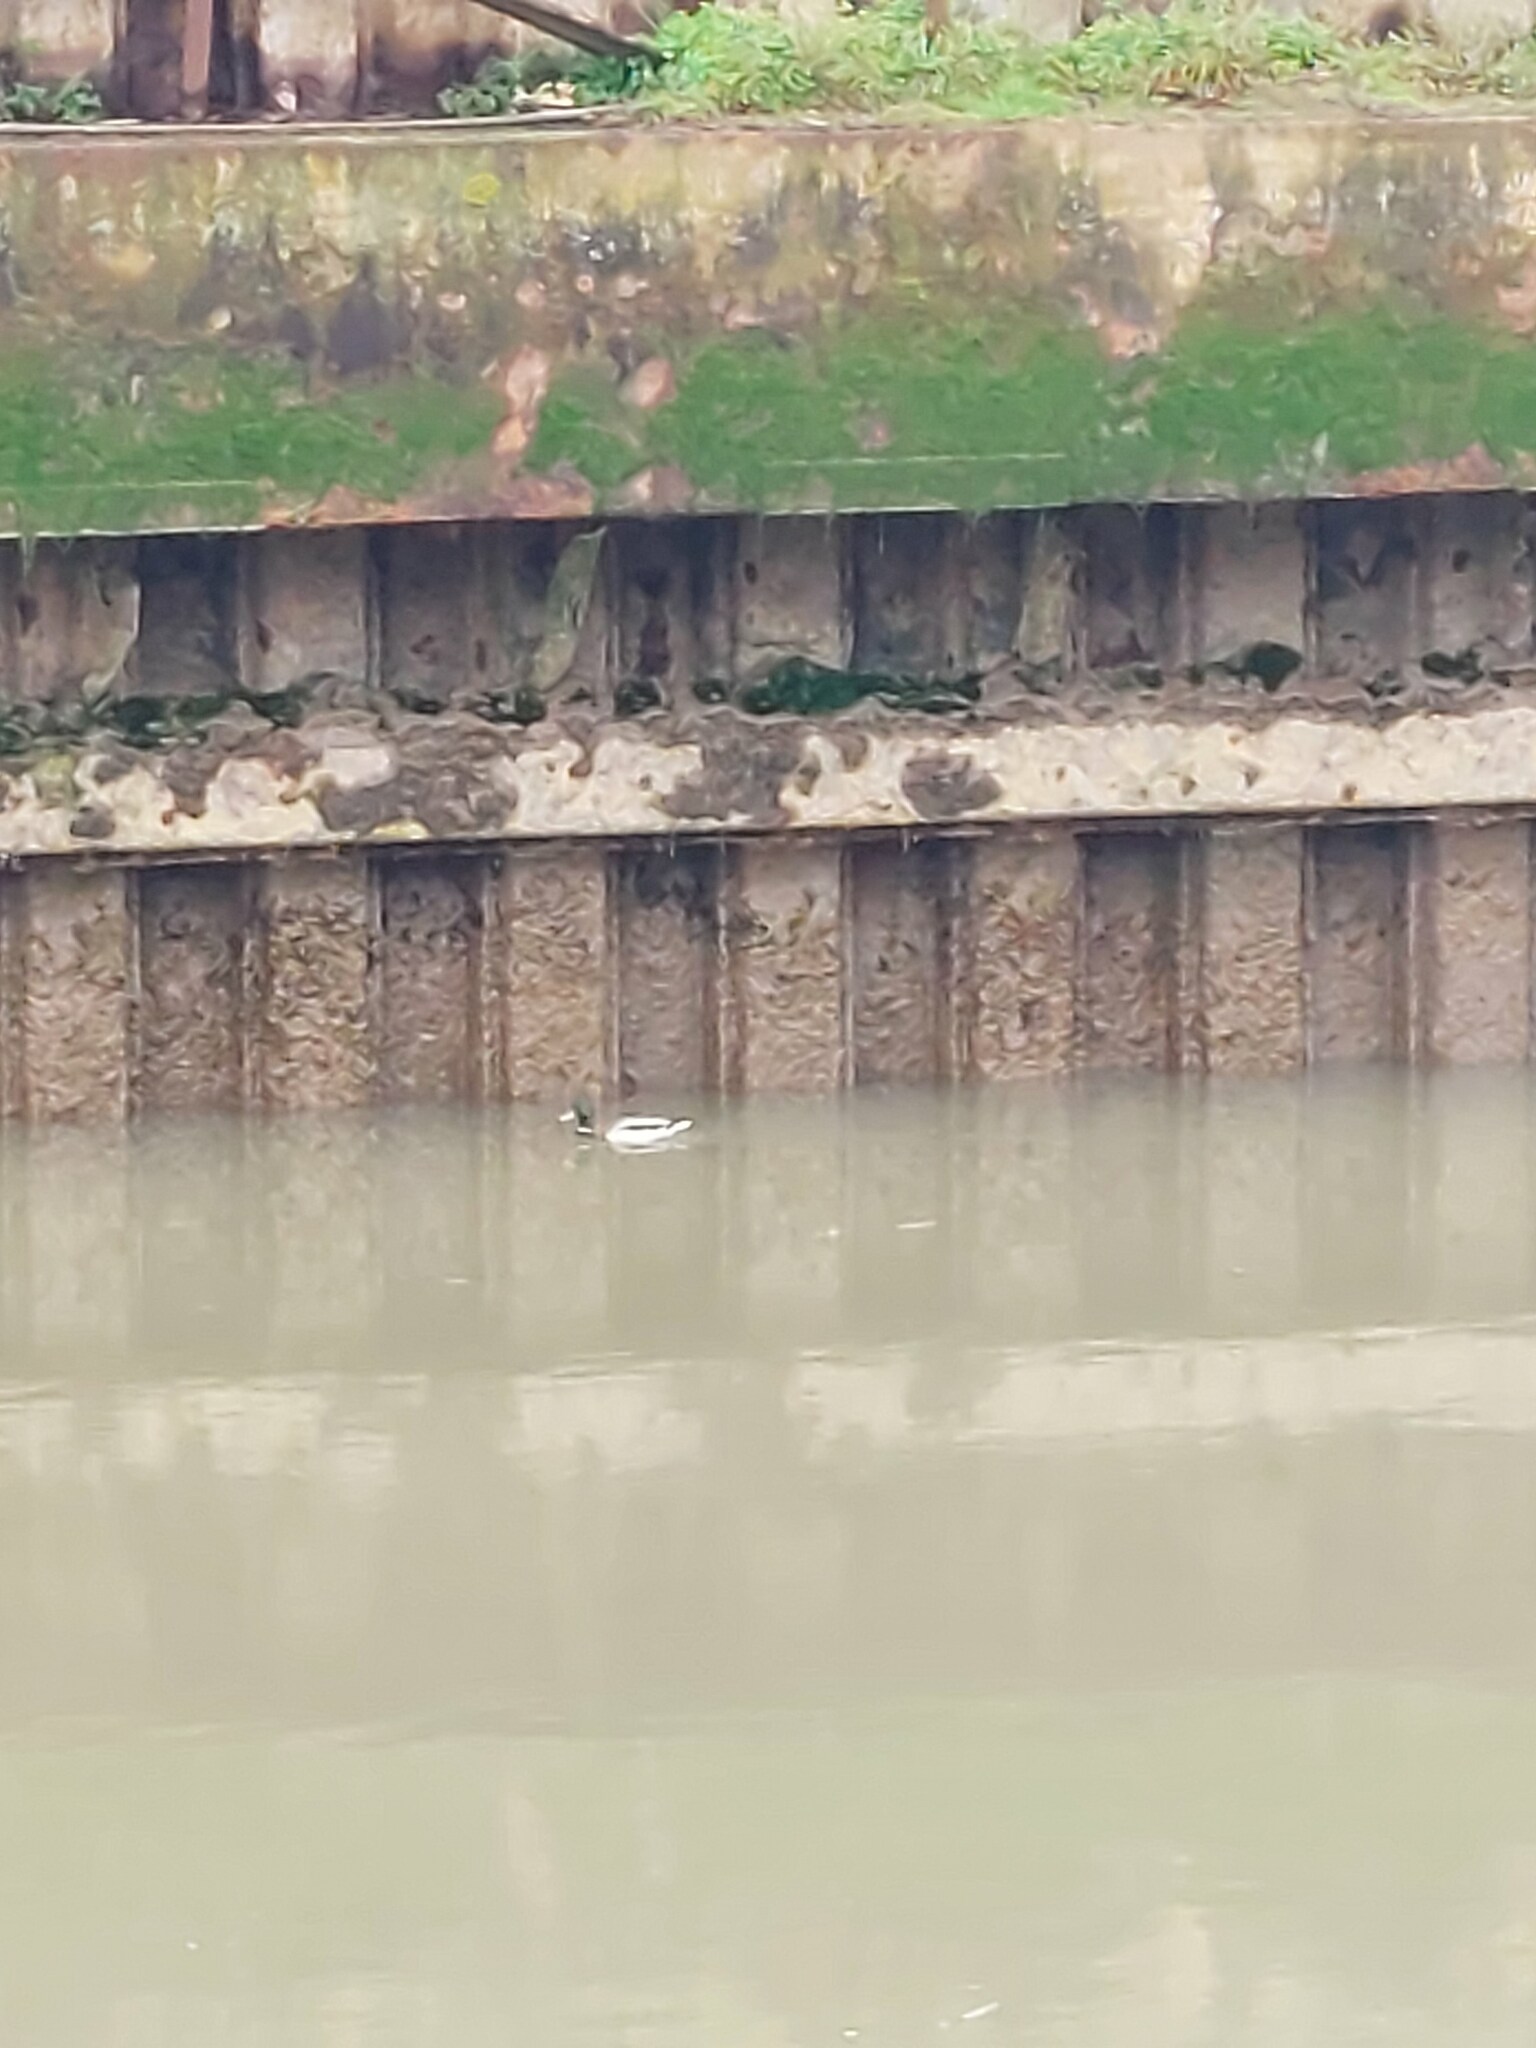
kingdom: Animalia
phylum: Chordata
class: Aves
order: Anseriformes
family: Anatidae
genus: Anas
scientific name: Anas platyrhynchos
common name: Mallard
